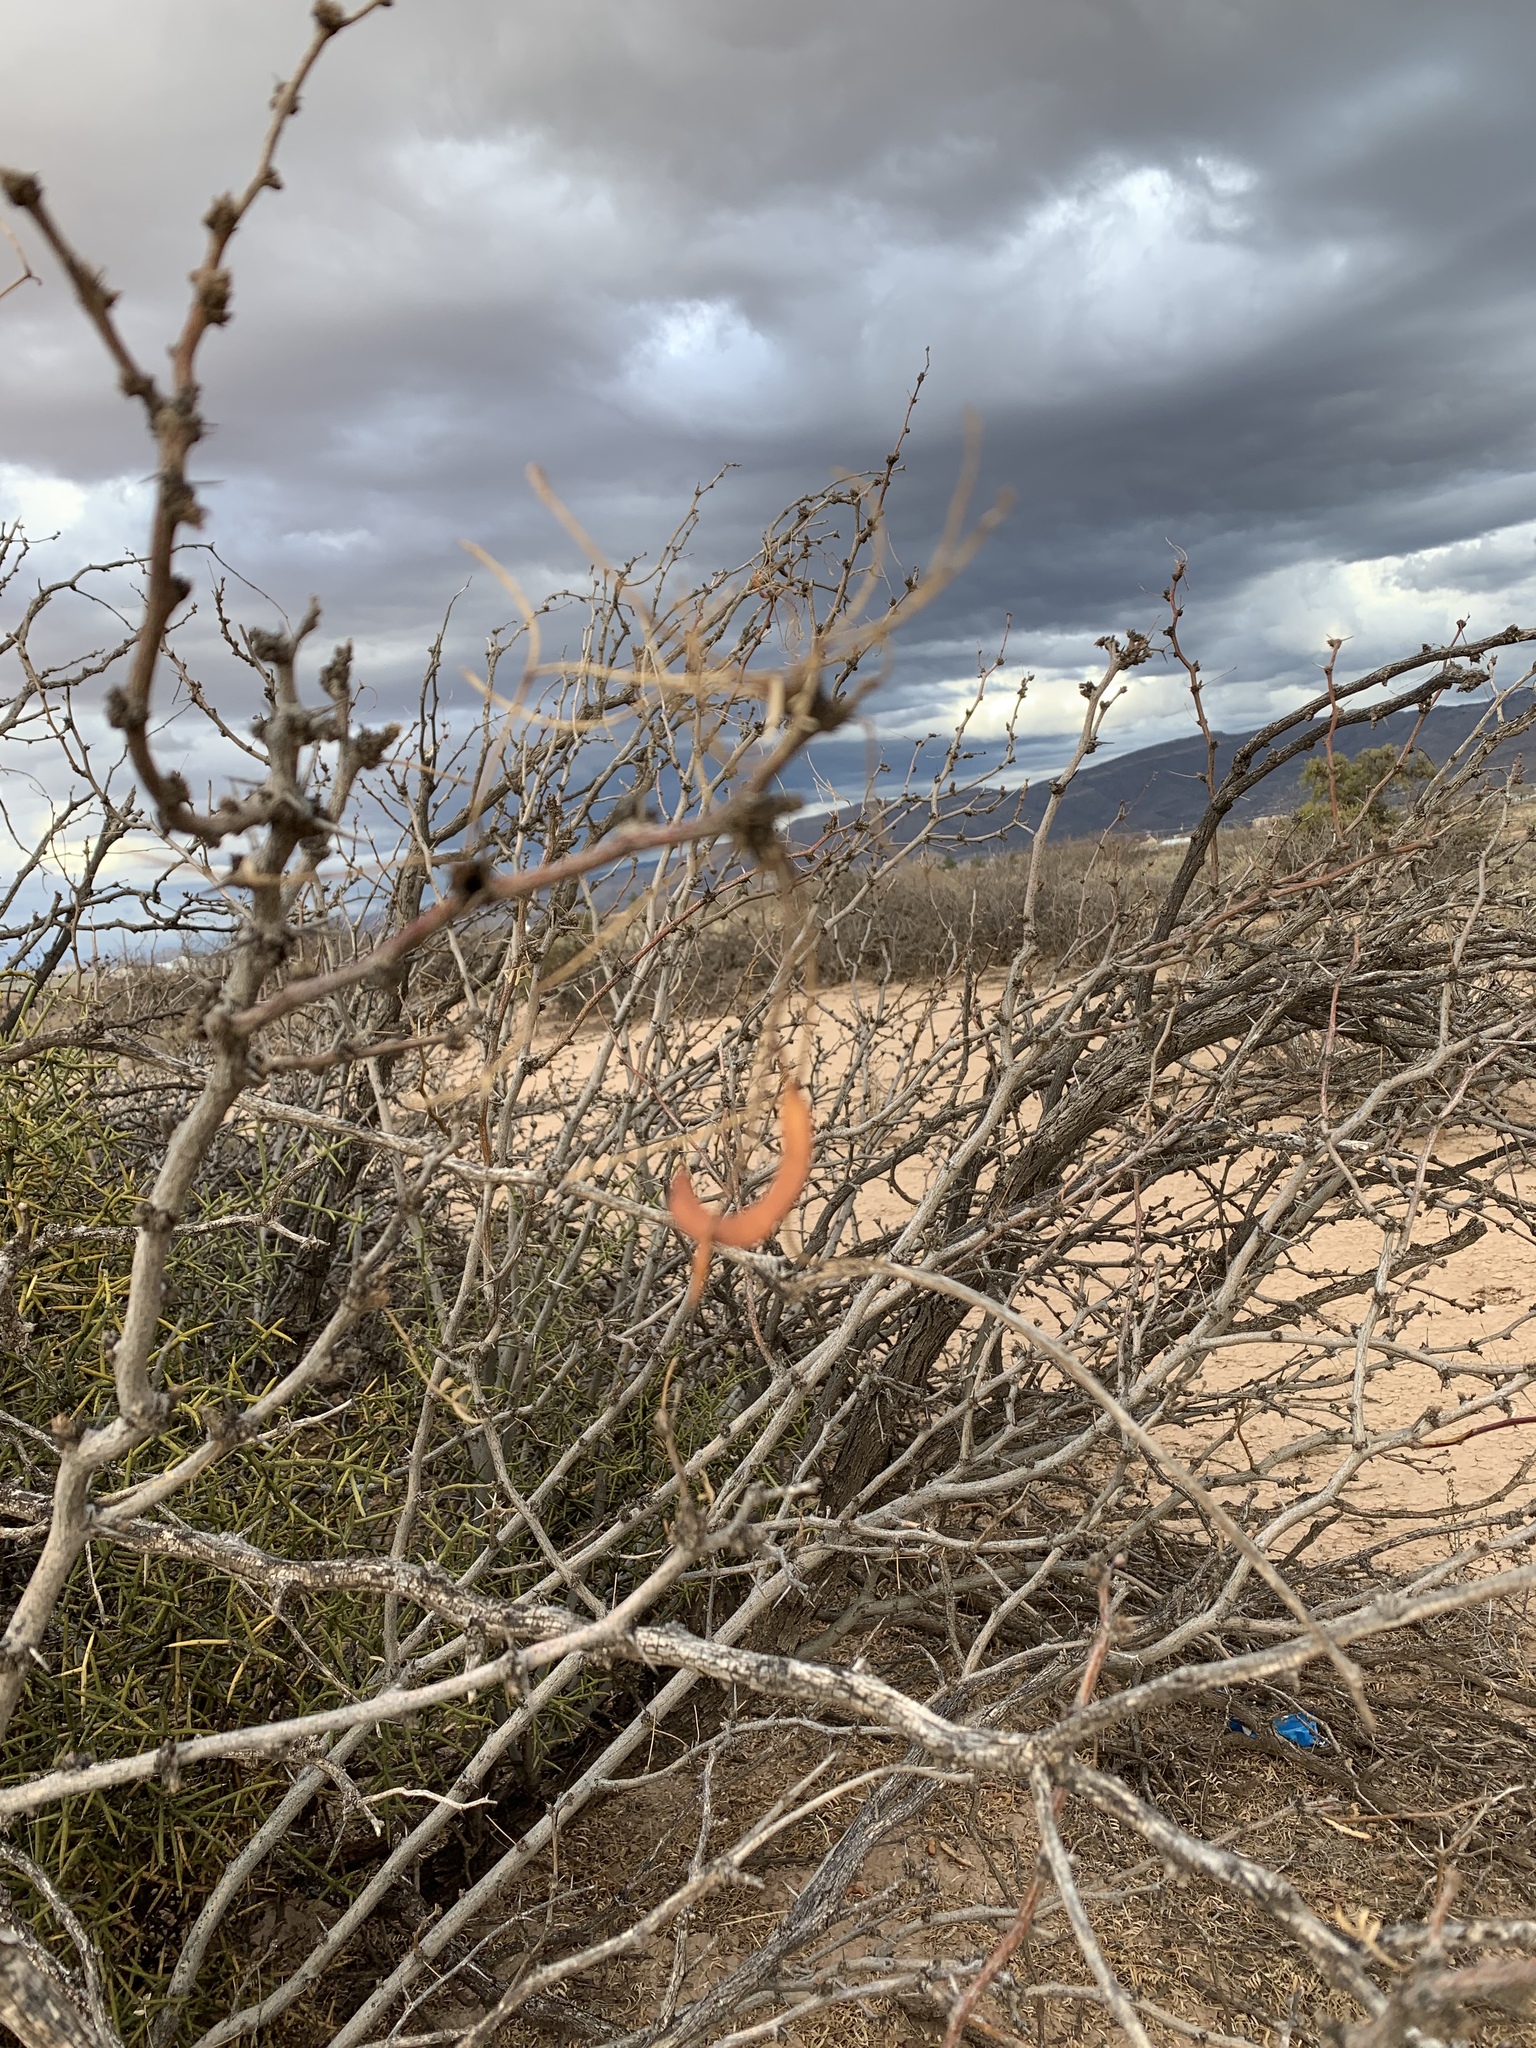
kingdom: Plantae
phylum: Tracheophyta
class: Magnoliopsida
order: Fabales
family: Fabaceae
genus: Prosopis
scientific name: Prosopis glandulosa
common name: Honey mesquite
